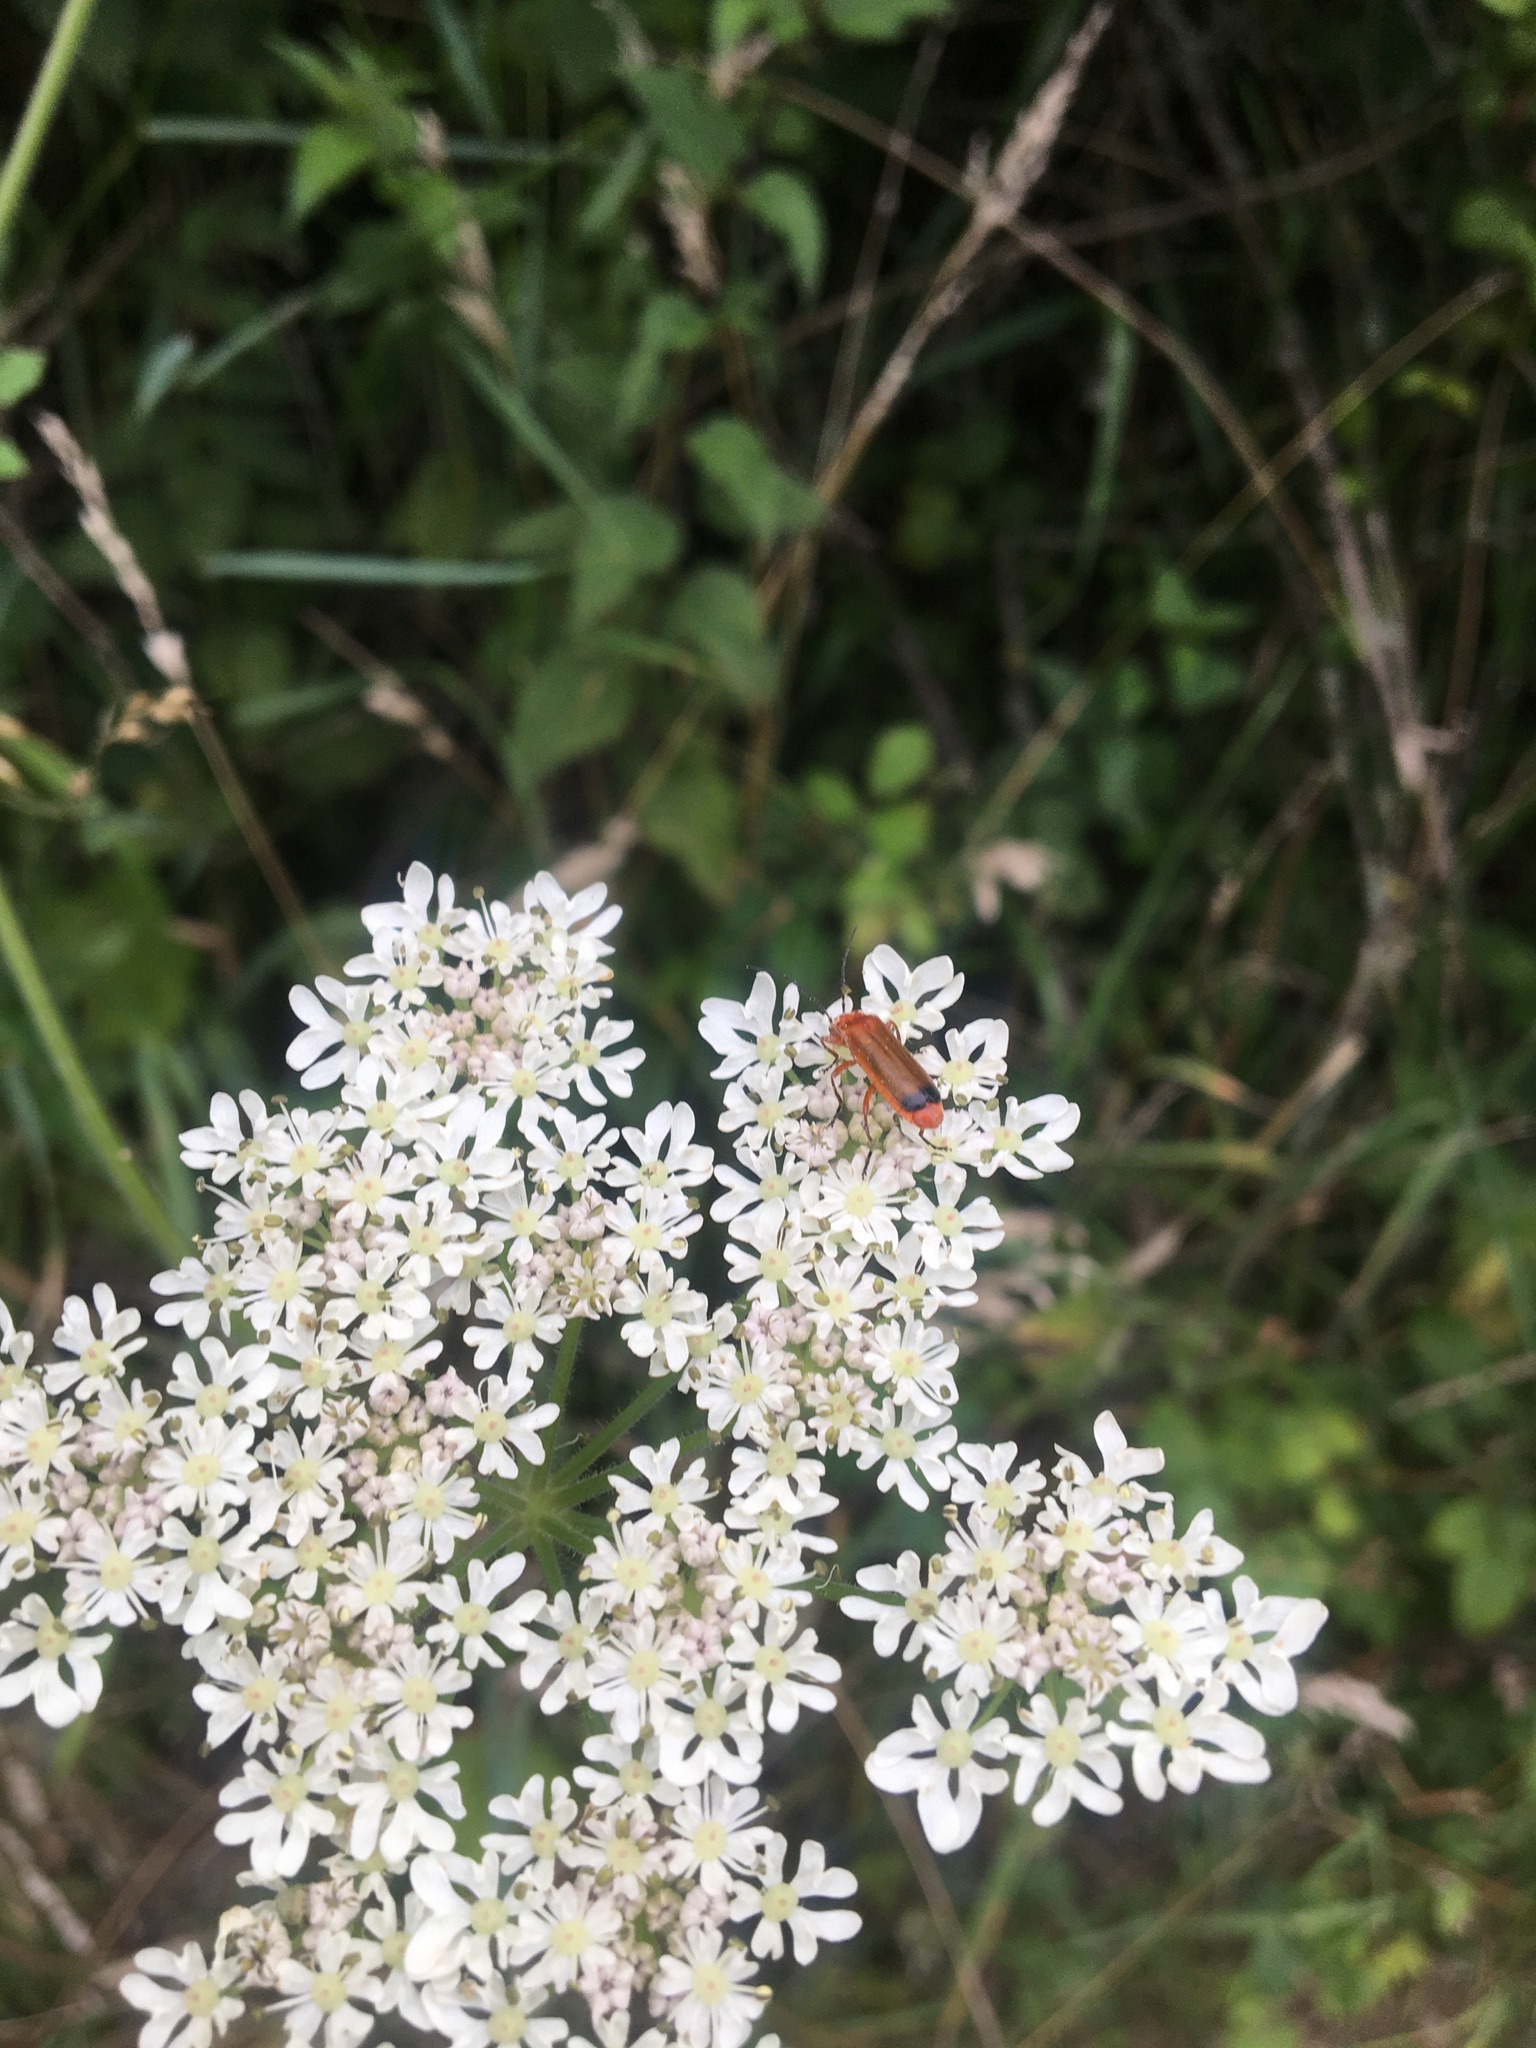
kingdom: Animalia
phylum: Arthropoda
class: Insecta
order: Coleoptera
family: Cantharidae
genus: Rhagonycha
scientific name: Rhagonycha fulva
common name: Common red soldier beetle
